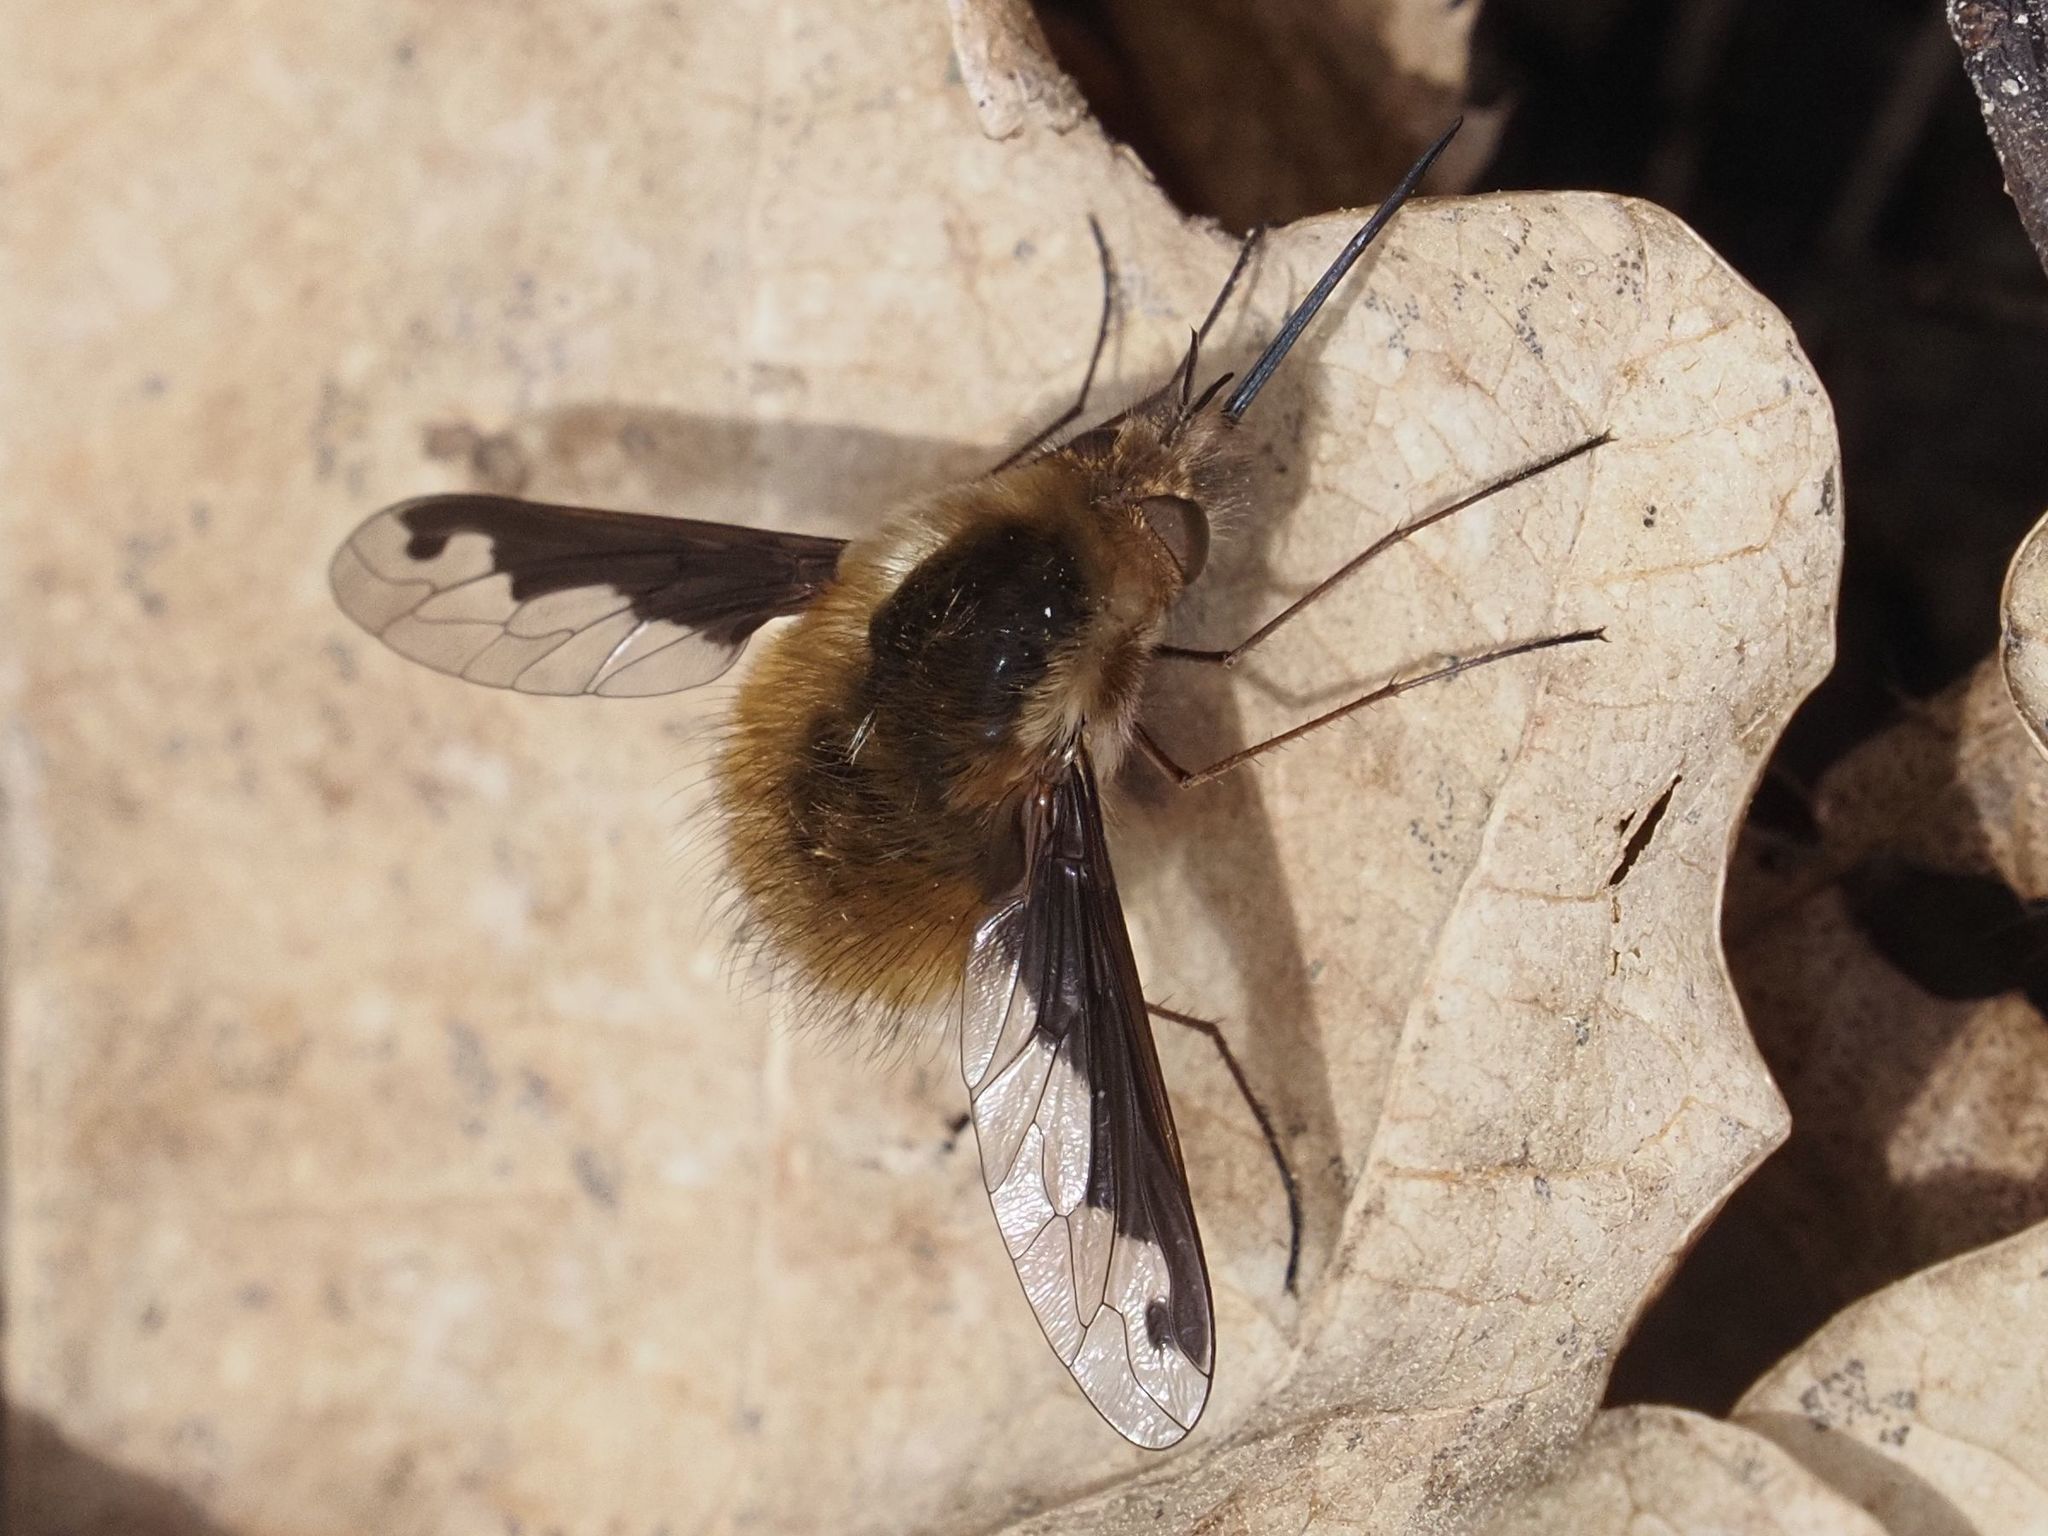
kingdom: Animalia
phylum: Arthropoda
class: Insecta
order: Diptera
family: Bombyliidae
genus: Bombylius
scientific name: Bombylius major
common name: Bee fly
